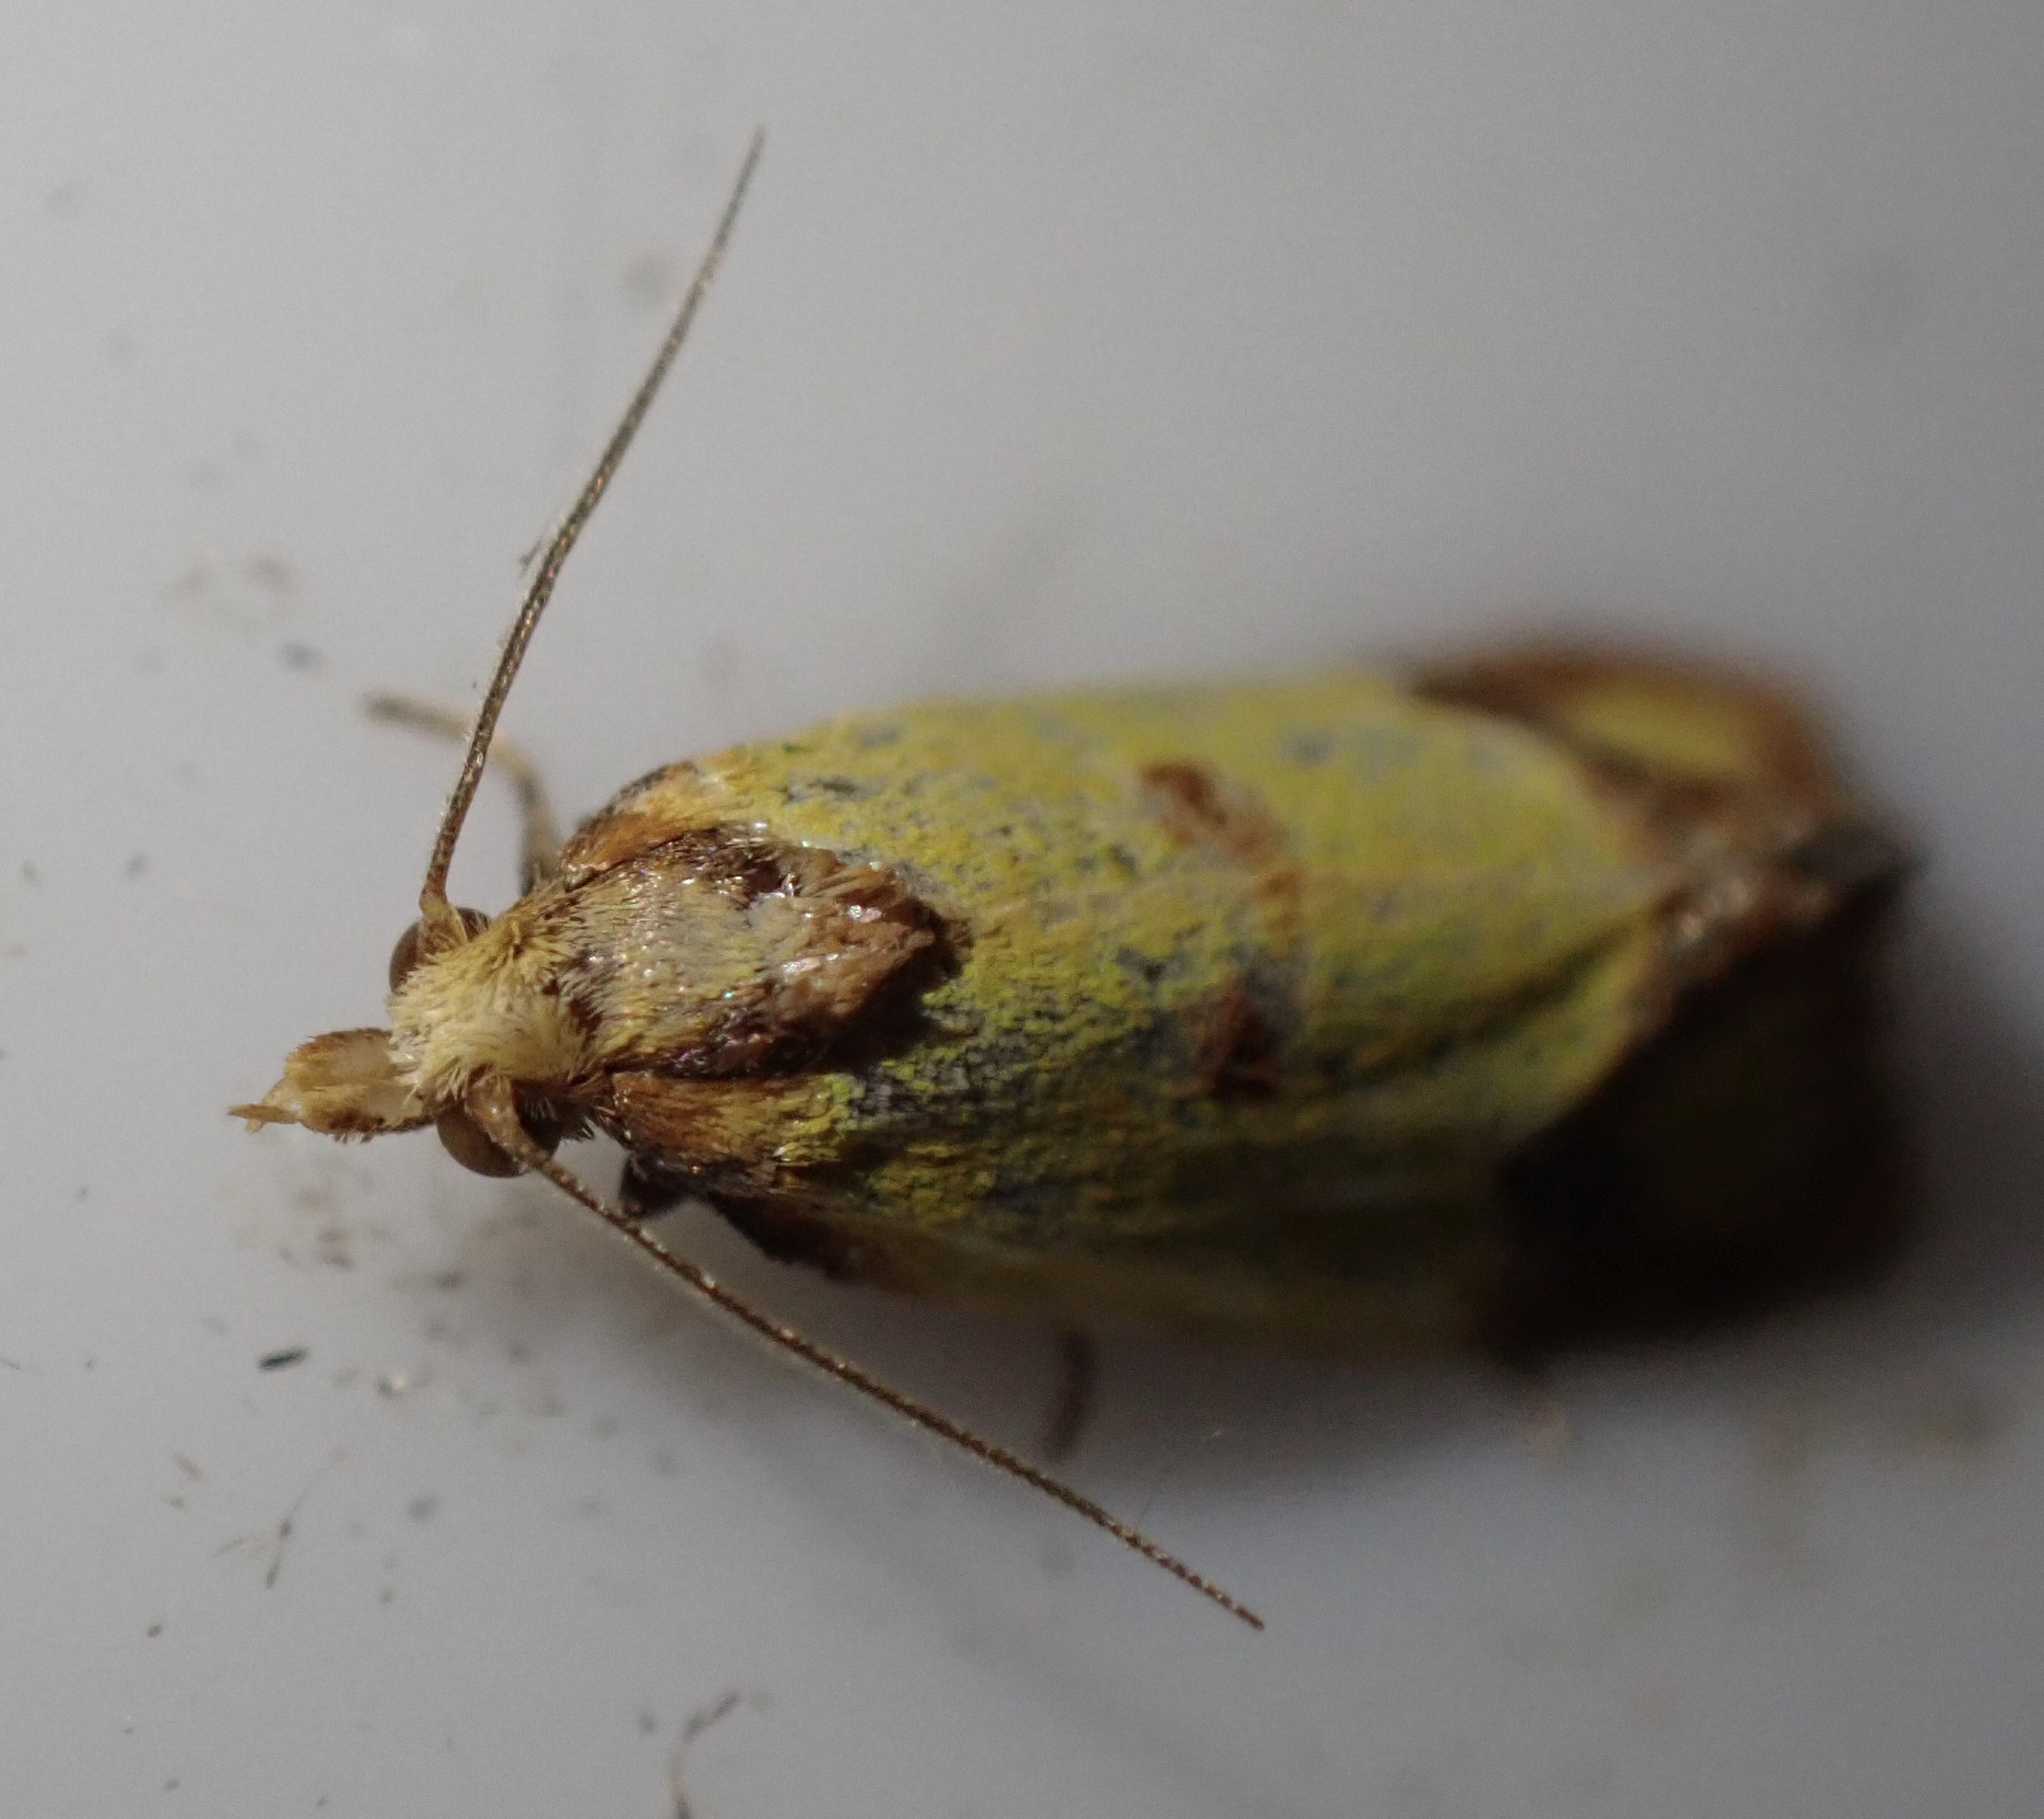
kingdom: Animalia
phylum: Arthropoda
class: Insecta
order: Lepidoptera
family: Tortricidae
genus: Agapeta
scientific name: Agapeta zoegana
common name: Sulfur knapweed root moth
